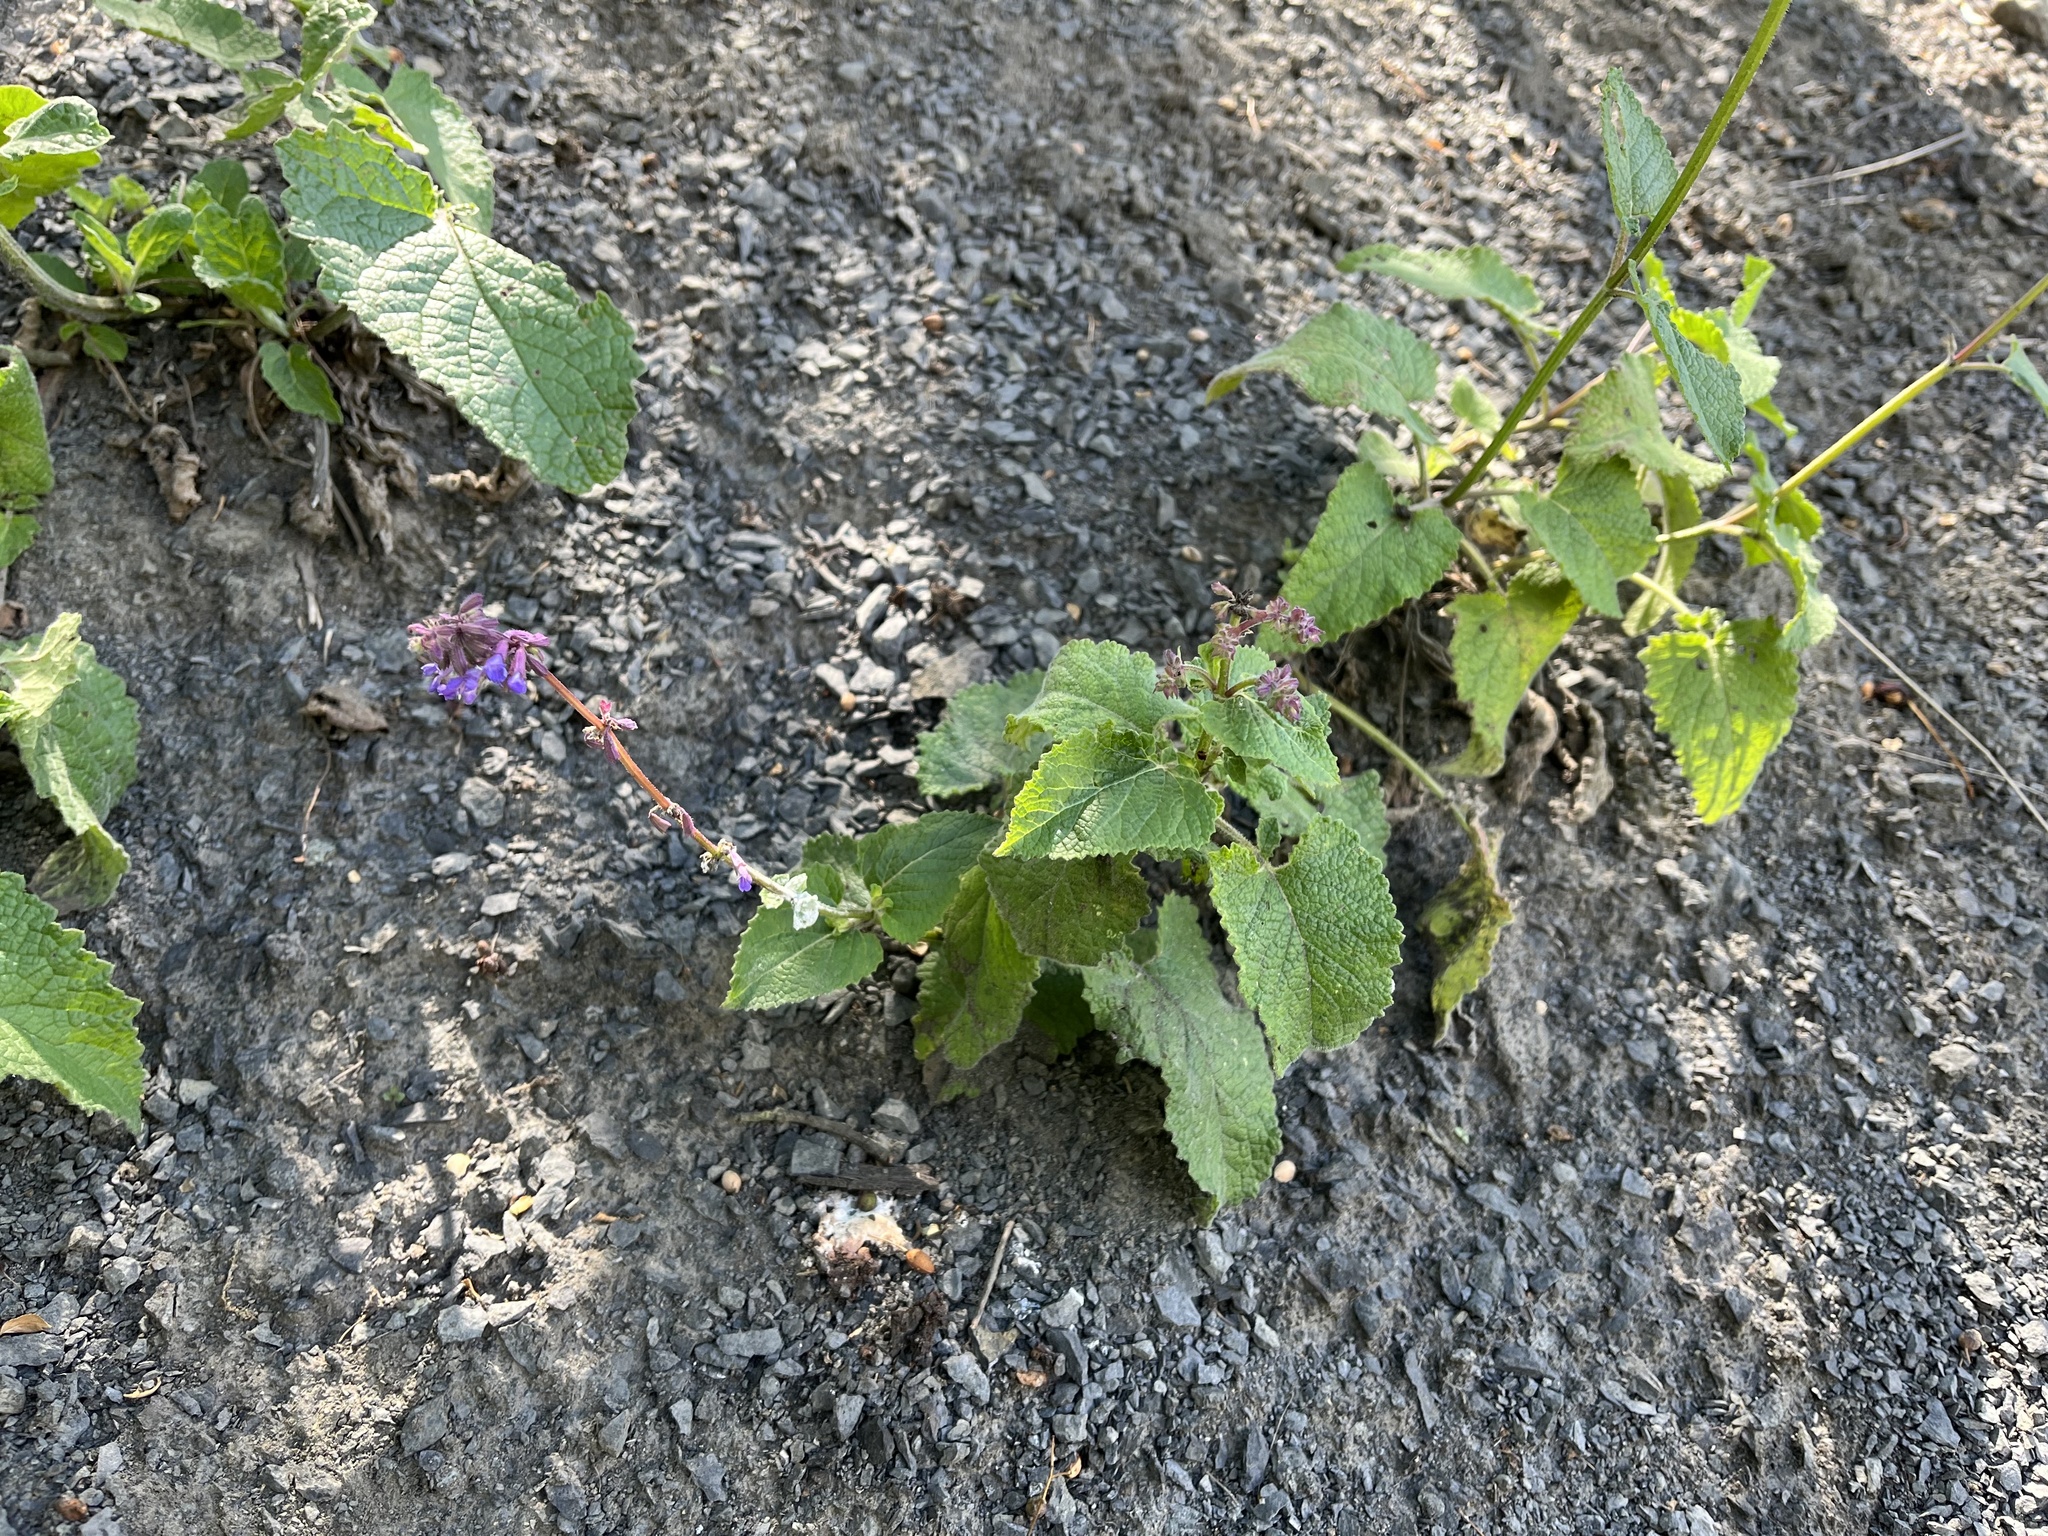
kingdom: Plantae
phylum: Tracheophyta
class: Magnoliopsida
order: Lamiales
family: Lamiaceae
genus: Salvia
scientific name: Salvia verticillata
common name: Whorled clary
